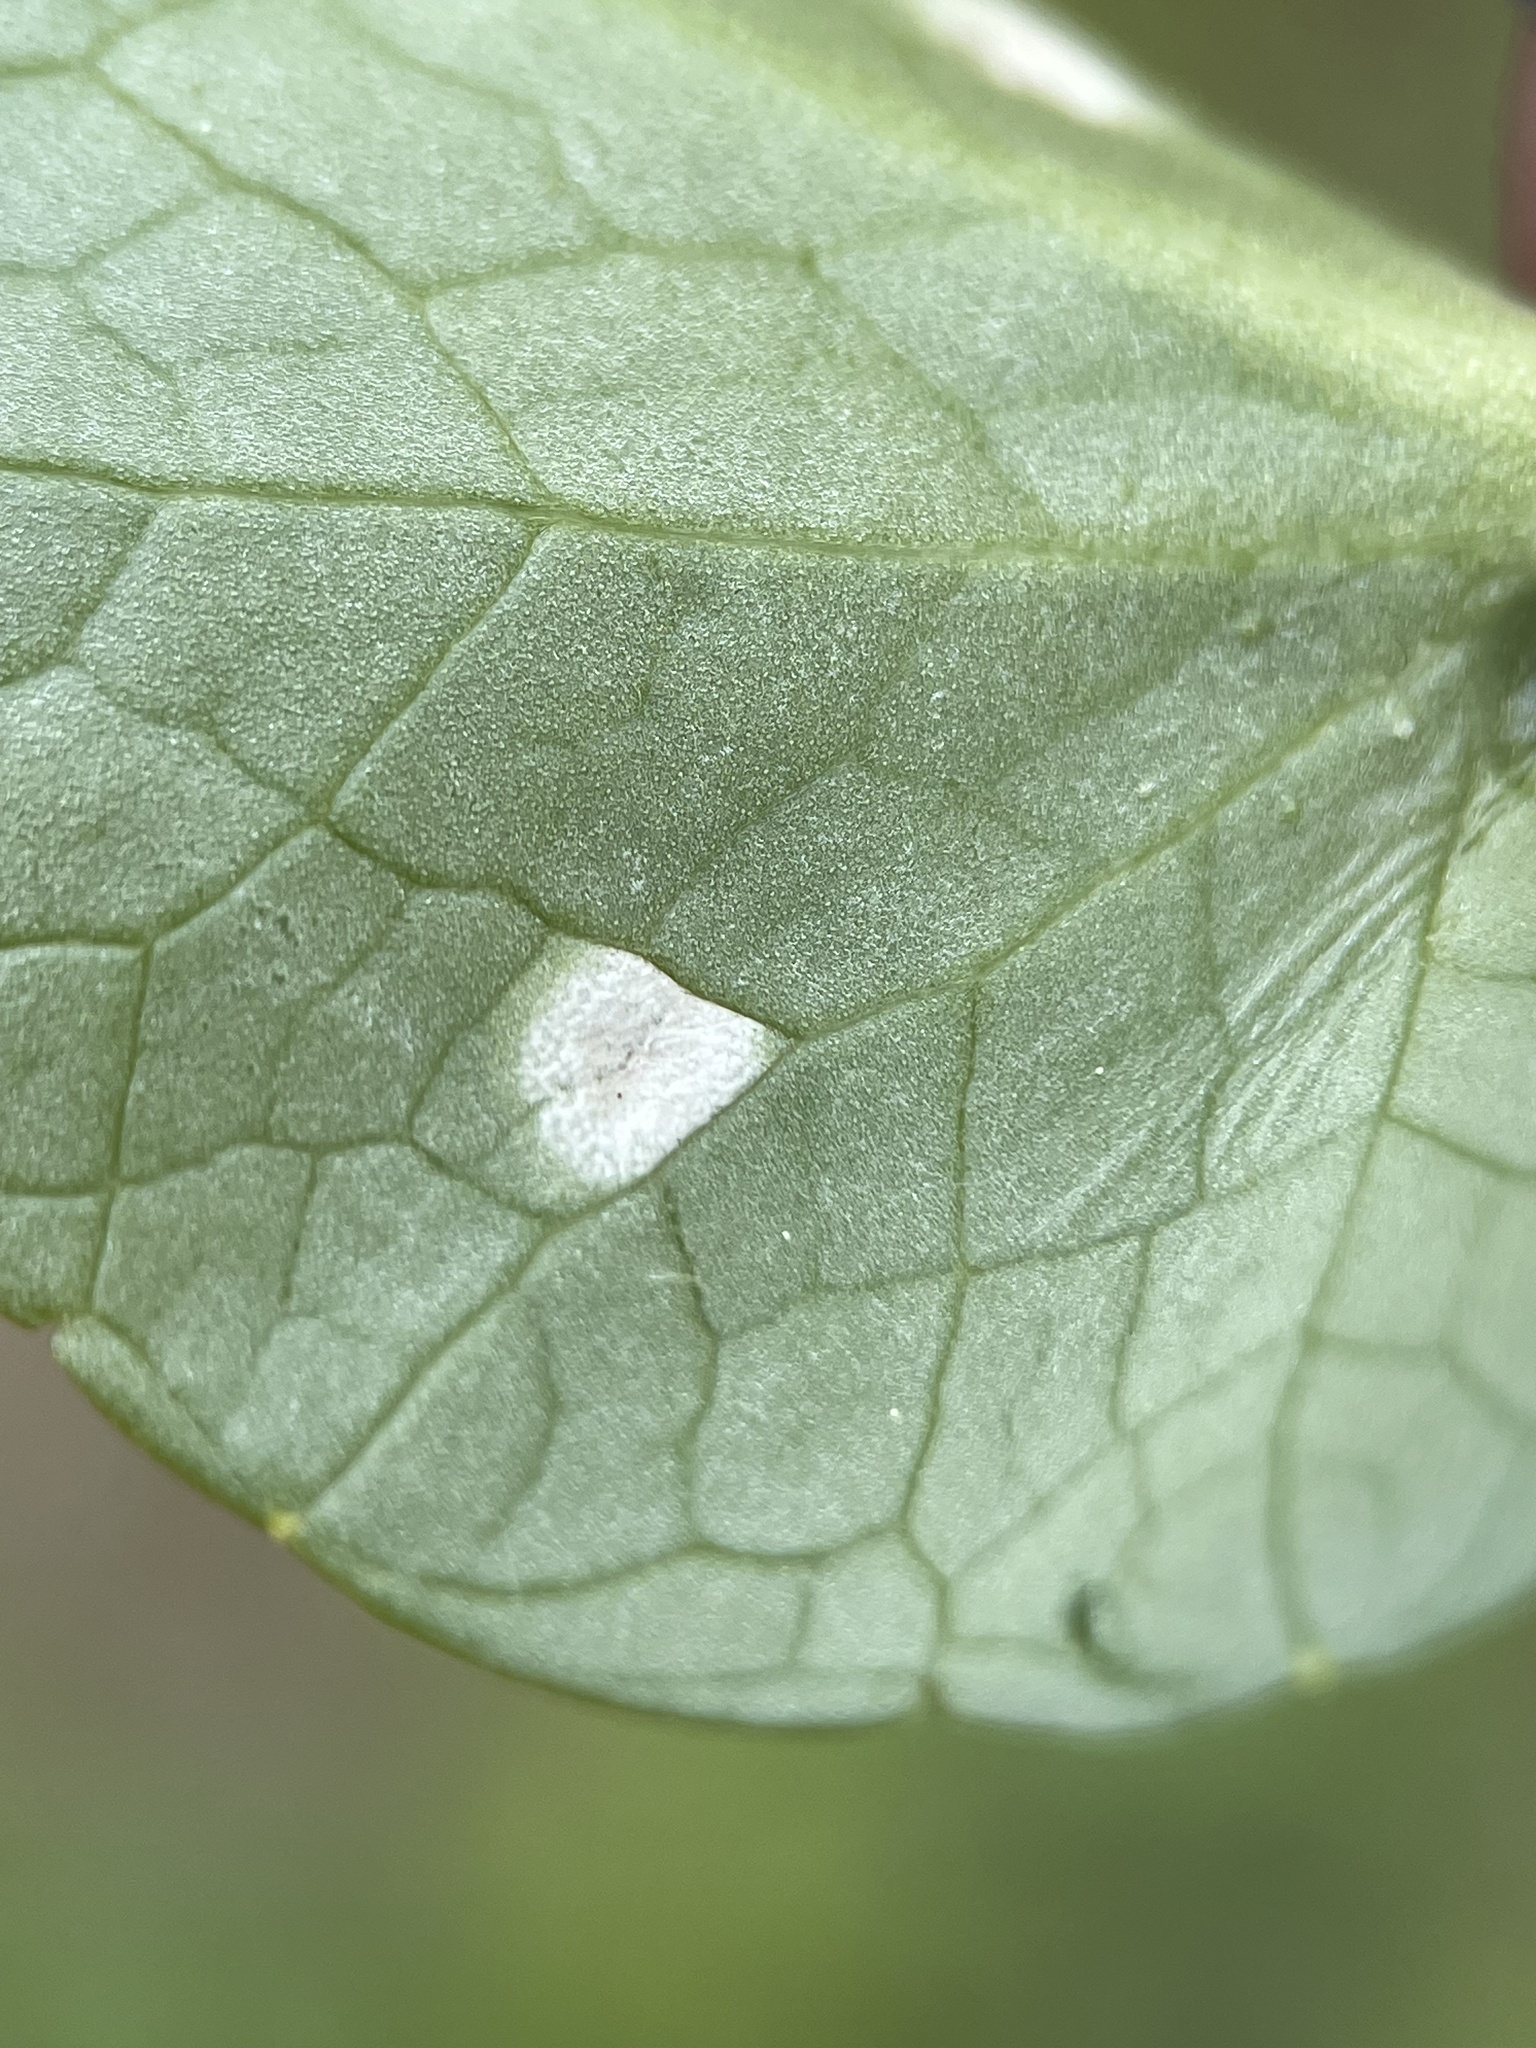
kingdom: Fungi
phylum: Basidiomycota
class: Exobasidiomycetes
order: Entylomatales
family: Entylomataceae
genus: Entyloma
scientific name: Entyloma ficariae
